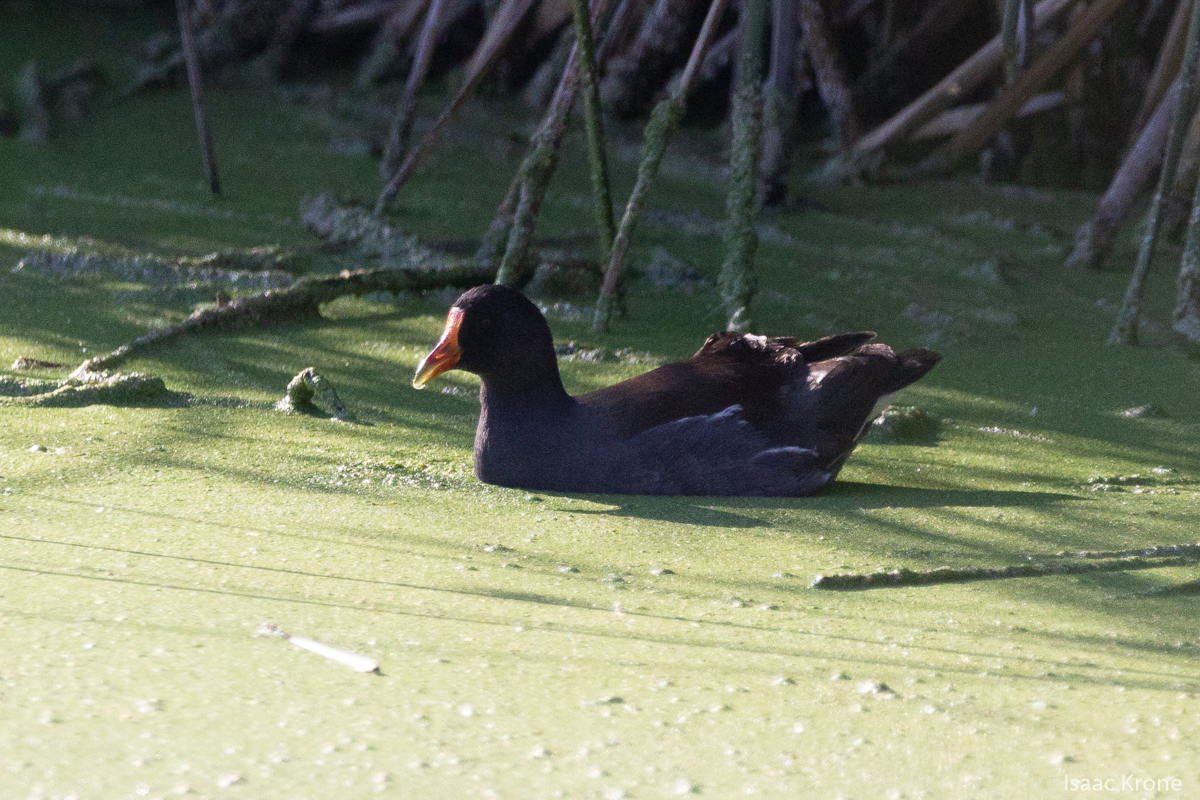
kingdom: Animalia
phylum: Chordata
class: Aves
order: Gruiformes
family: Rallidae
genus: Gallinula
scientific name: Gallinula chloropus
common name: Common moorhen
